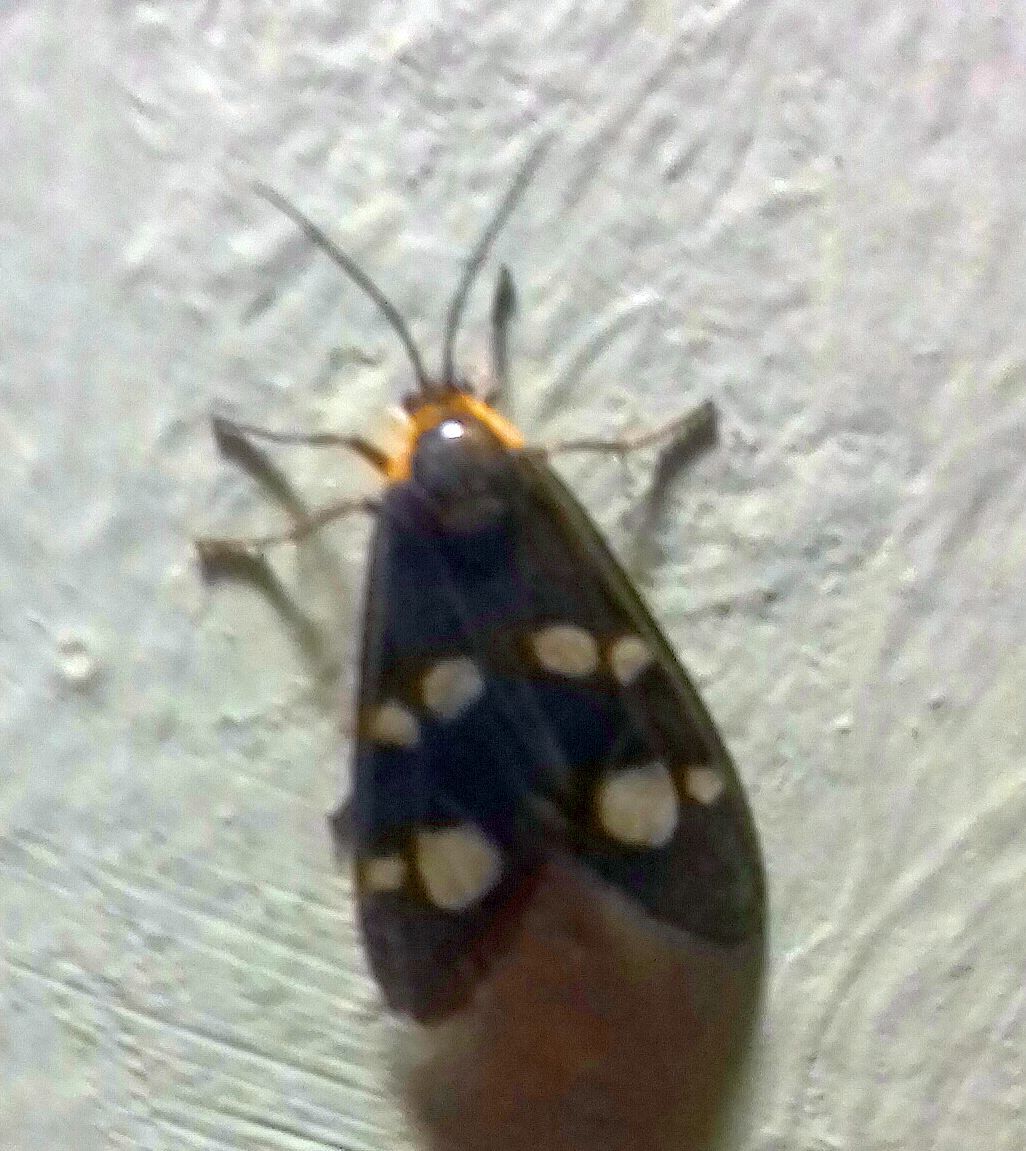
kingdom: Animalia
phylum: Arthropoda
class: Insecta
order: Lepidoptera
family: Erebidae
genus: Dysauxes
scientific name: Dysauxes punctata
